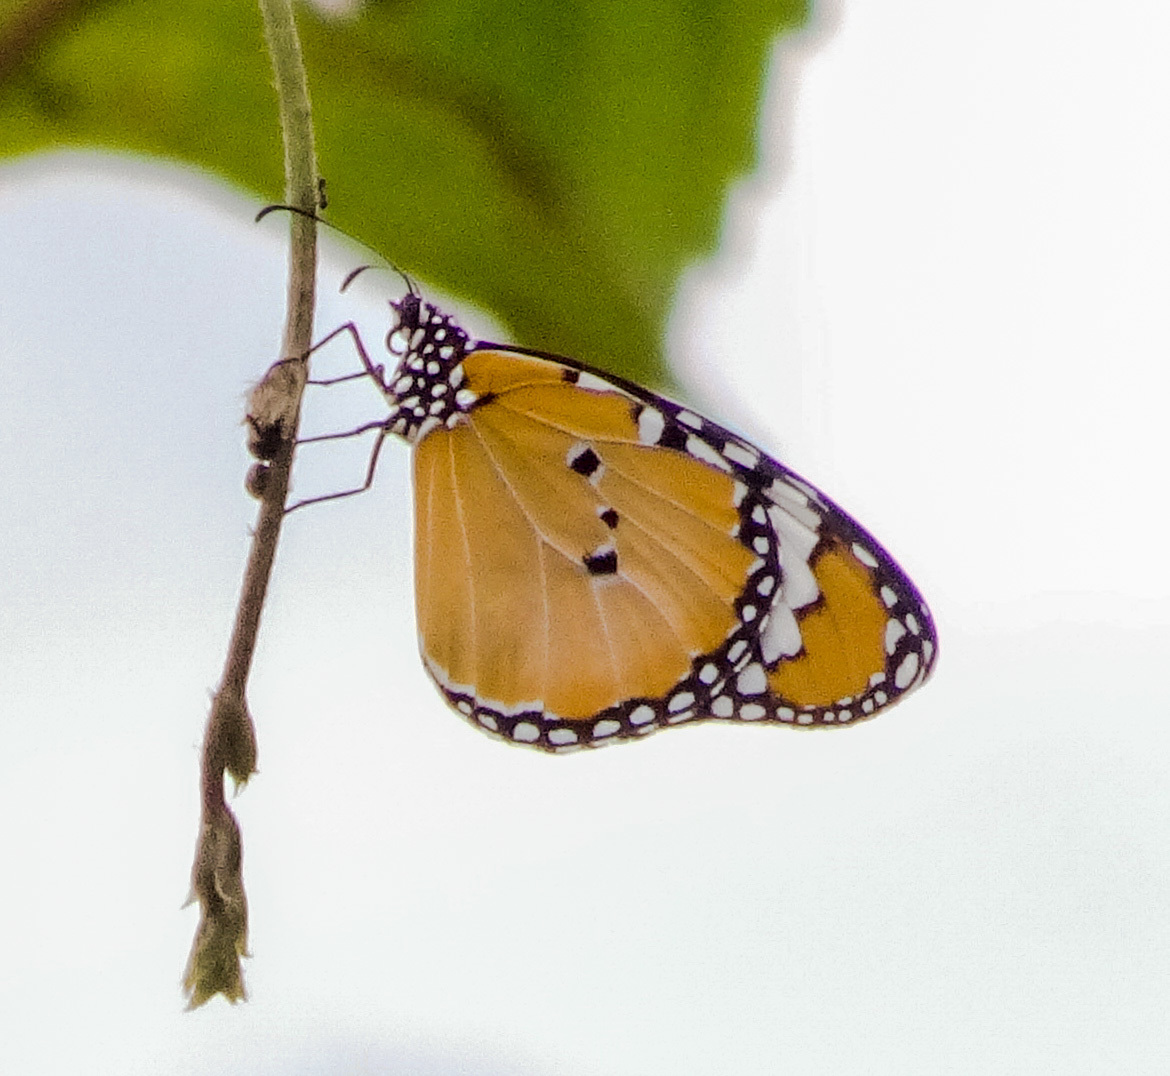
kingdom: Animalia
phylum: Arthropoda
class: Insecta
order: Lepidoptera
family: Nymphalidae
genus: Danaus
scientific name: Danaus chrysippus
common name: Plain tiger
